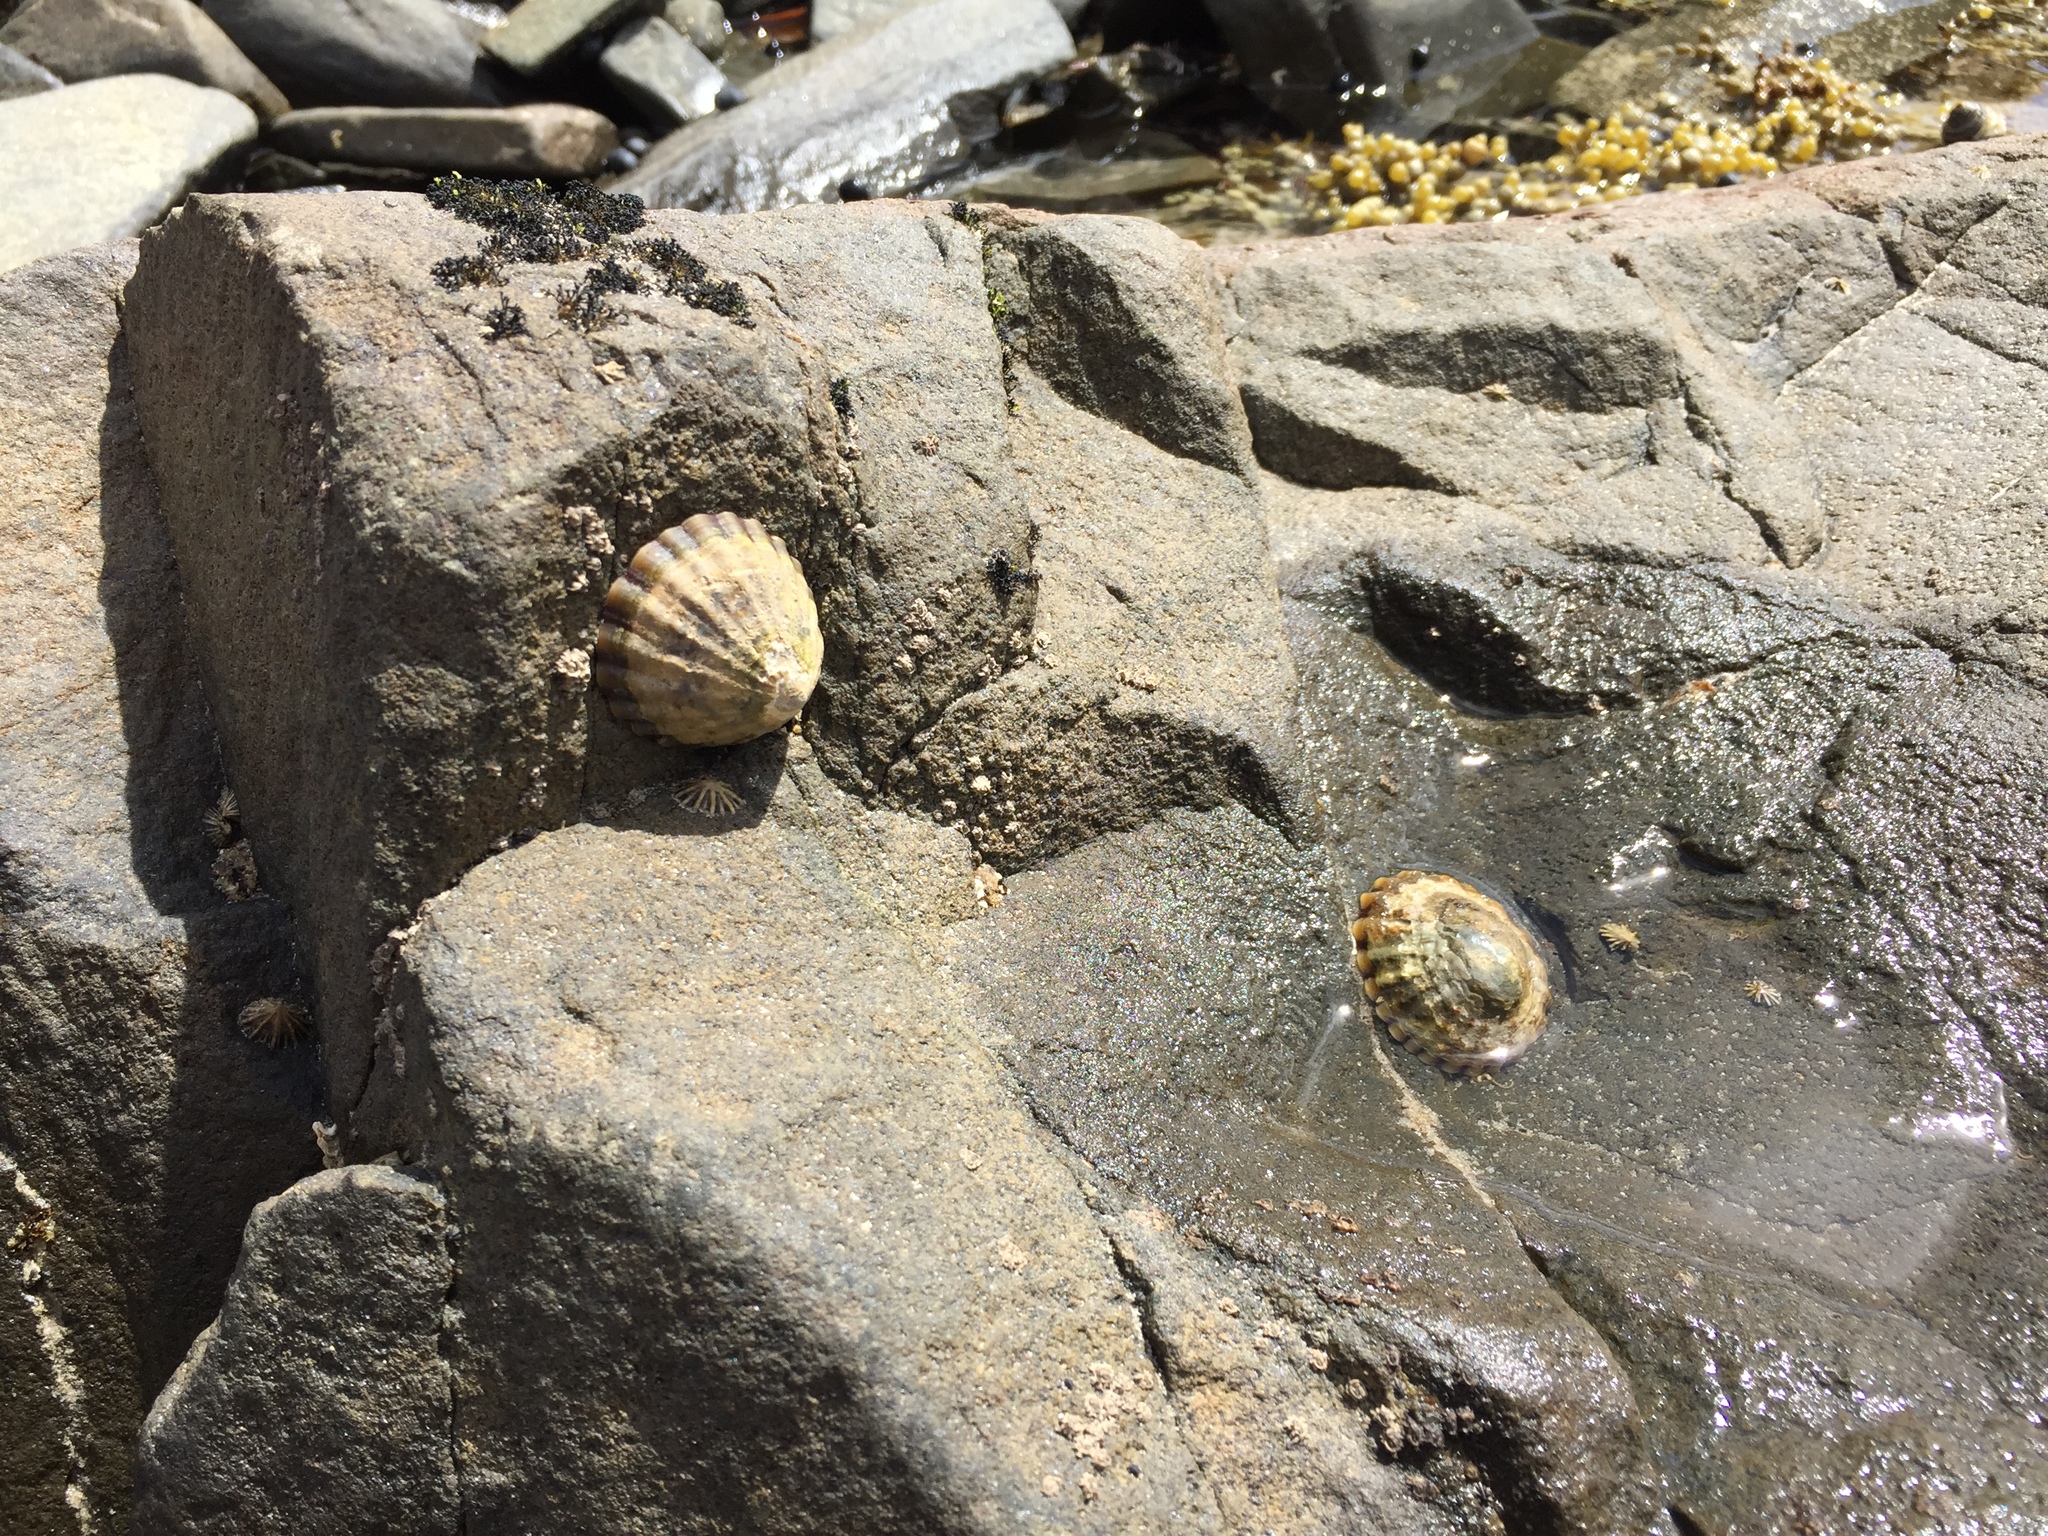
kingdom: Animalia
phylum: Mollusca
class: Gastropoda
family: Nacellidae
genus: Cellana
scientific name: Cellana solida
